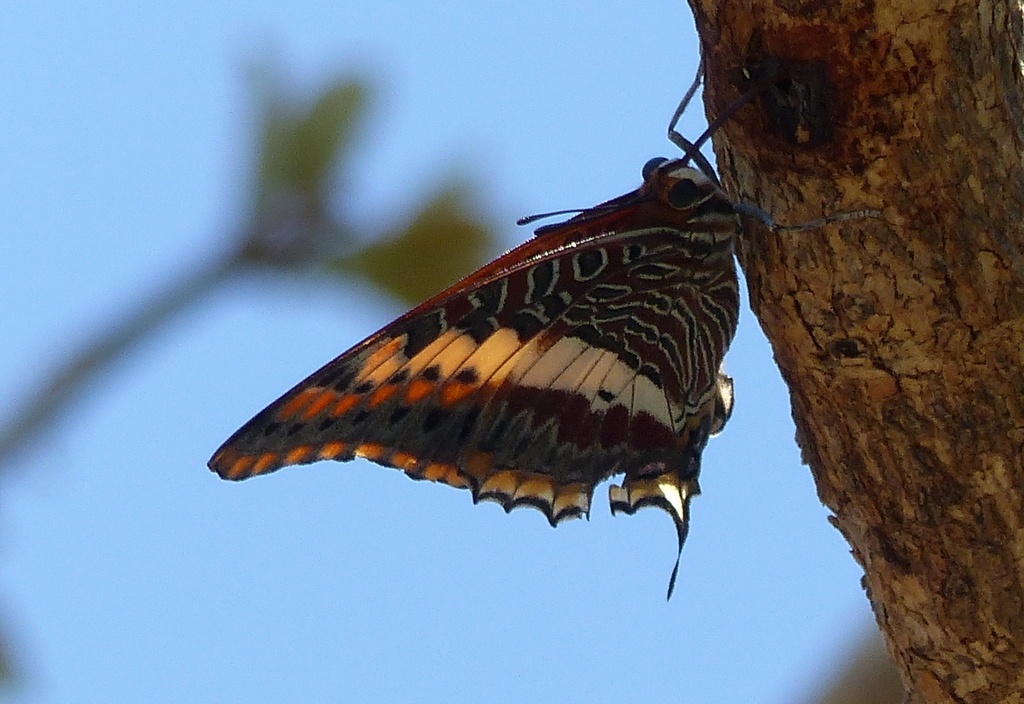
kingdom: Animalia
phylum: Arthropoda
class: Insecta
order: Lepidoptera
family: Nymphalidae
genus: Charaxes
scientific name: Charaxes jasius
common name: Two tailed pasha
